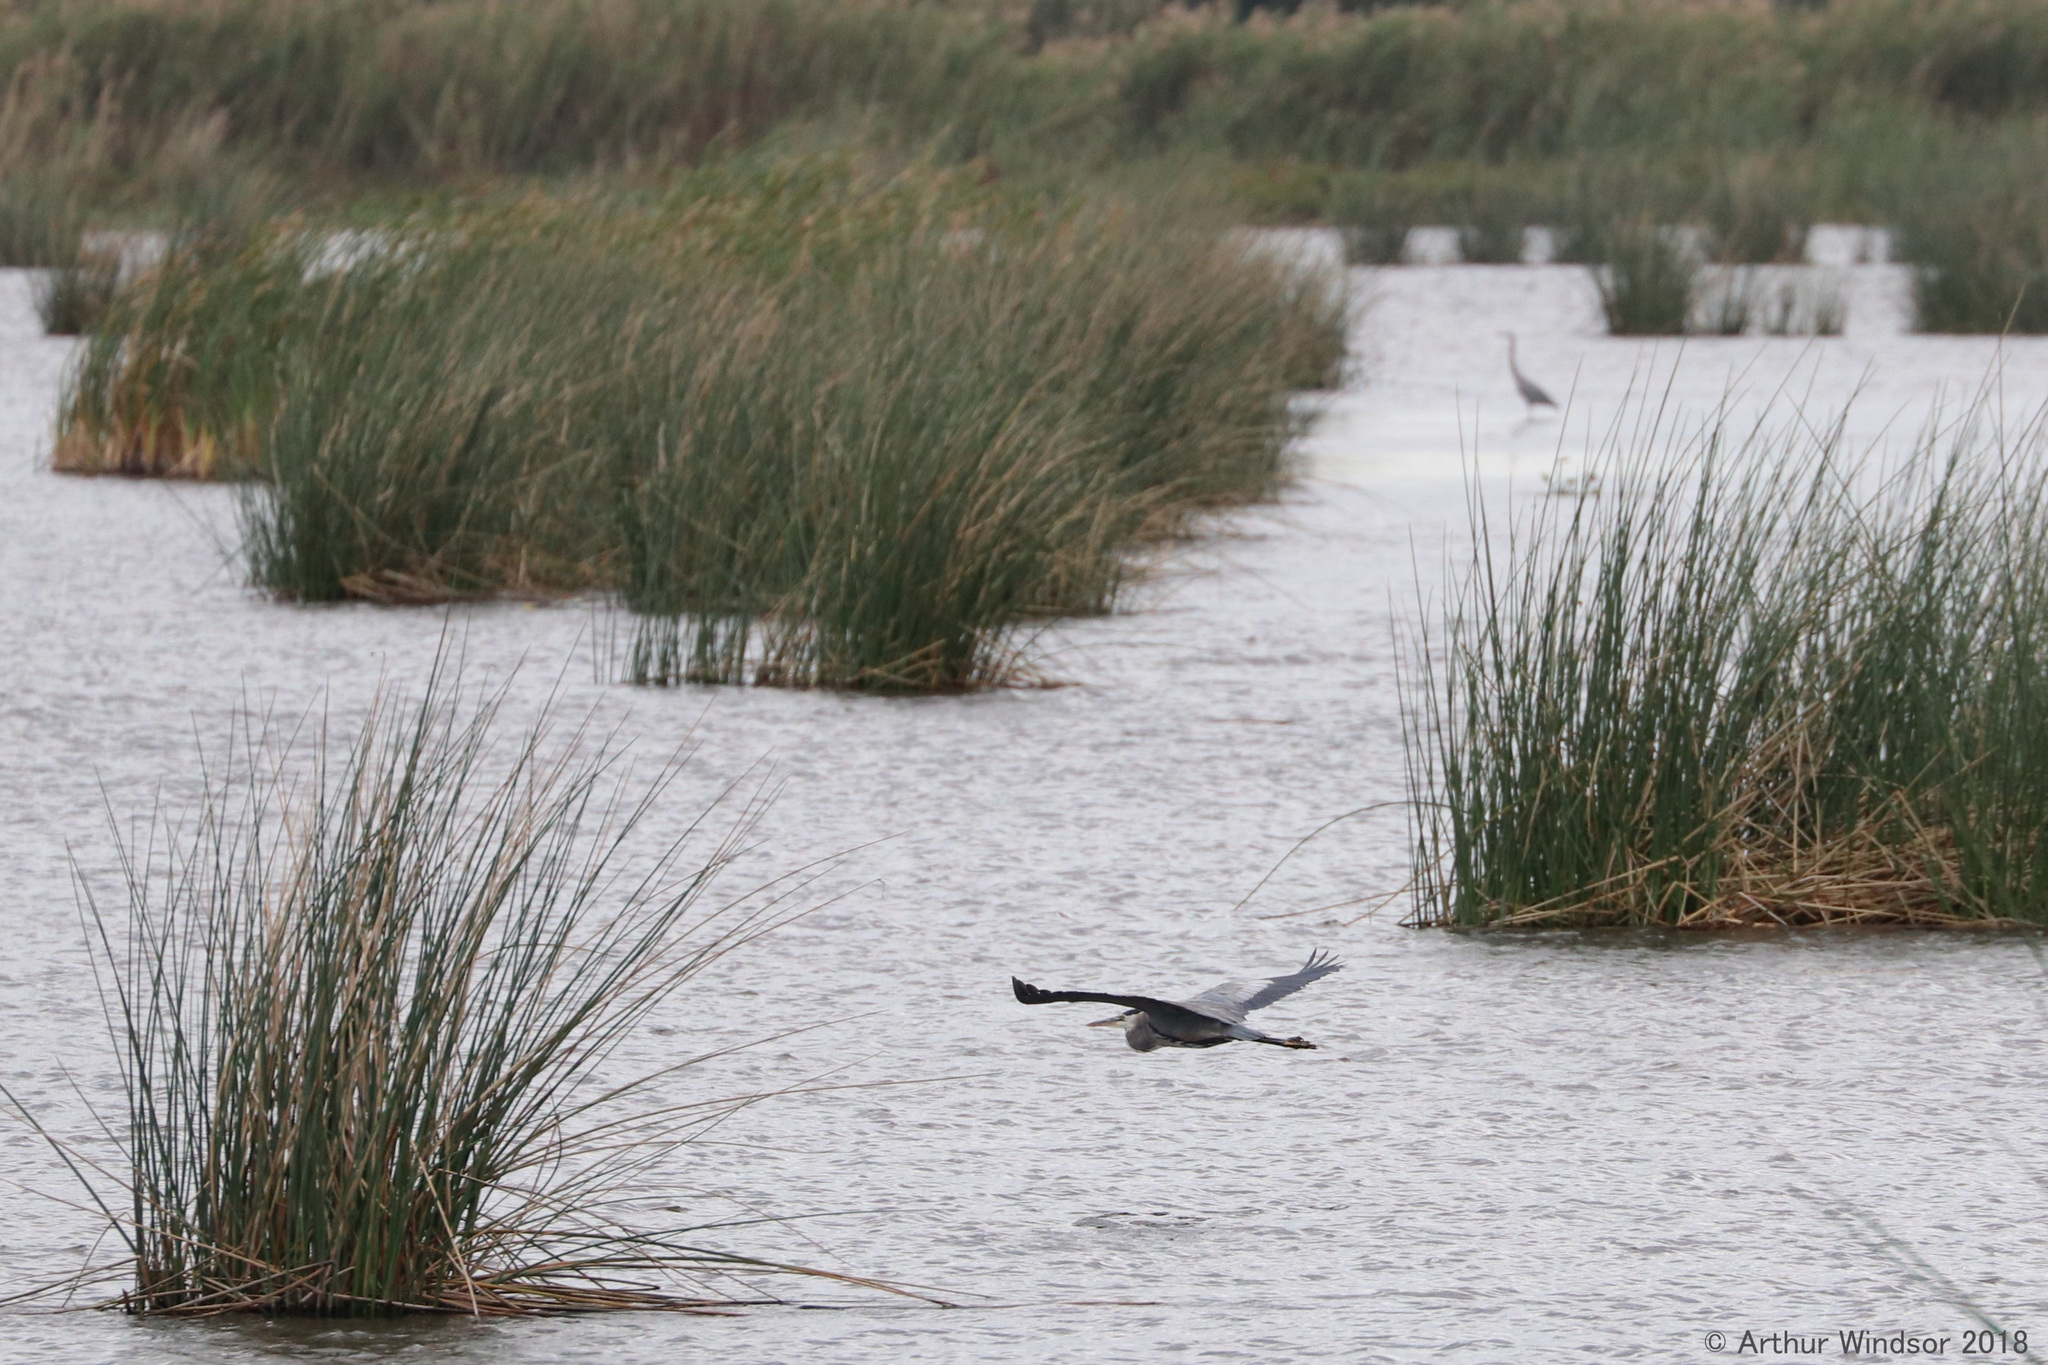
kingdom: Animalia
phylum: Chordata
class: Aves
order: Pelecaniformes
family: Ardeidae
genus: Ardea
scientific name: Ardea herodias
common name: Great blue heron
